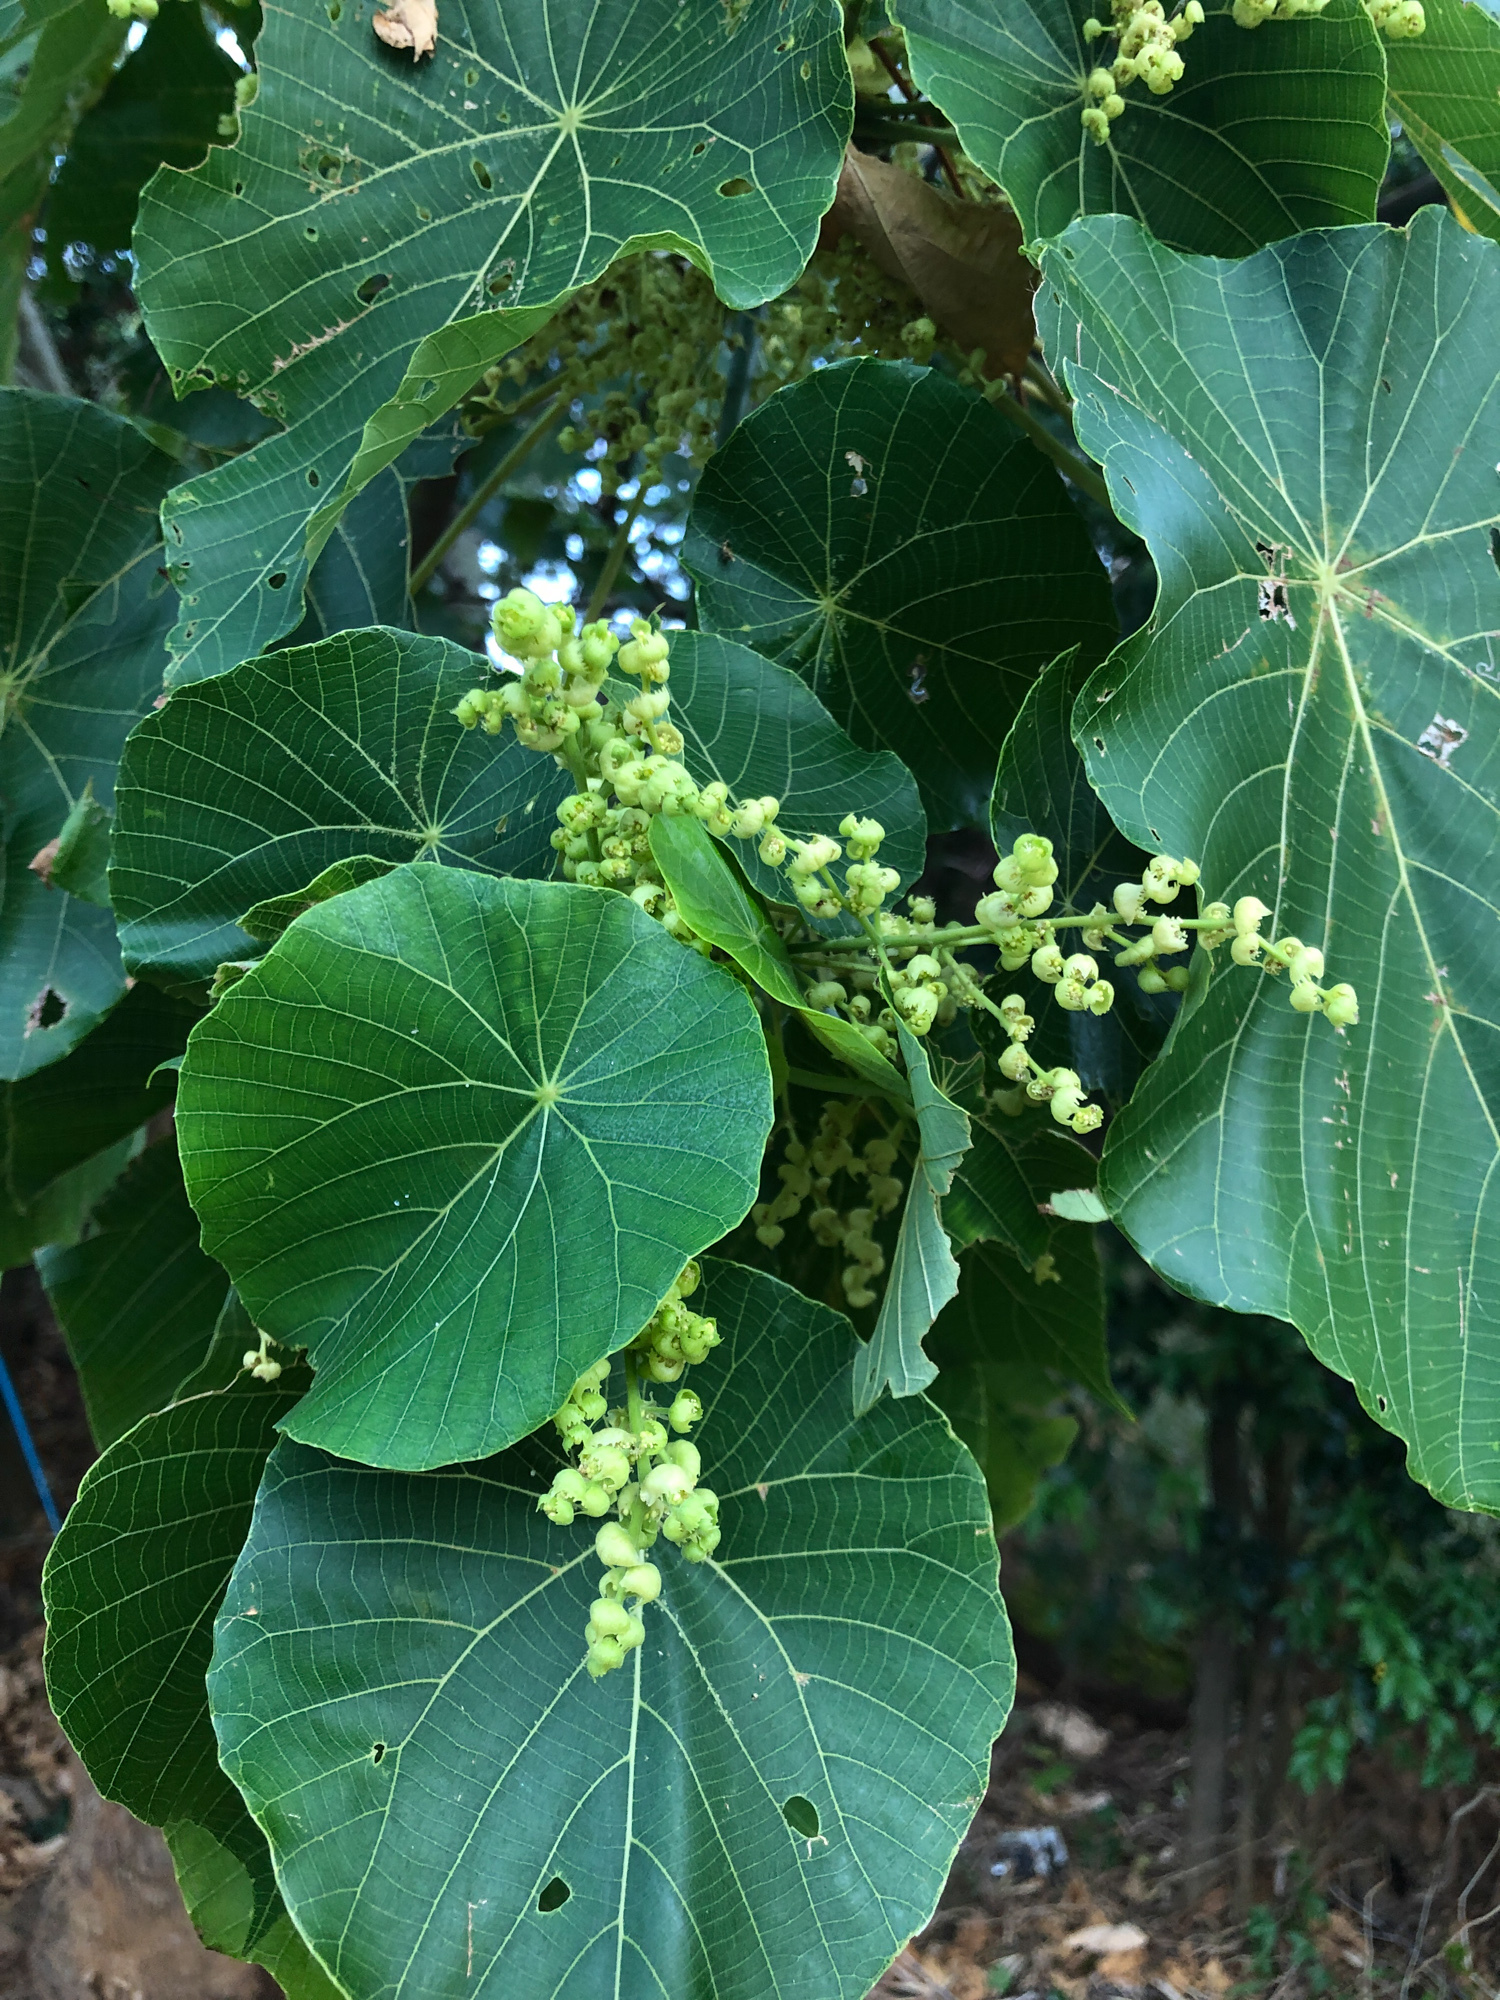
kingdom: Plantae
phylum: Tracheophyta
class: Magnoliopsida
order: Malpighiales
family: Euphorbiaceae
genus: Macaranga
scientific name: Macaranga tanarius
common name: Parasol leaf tree
